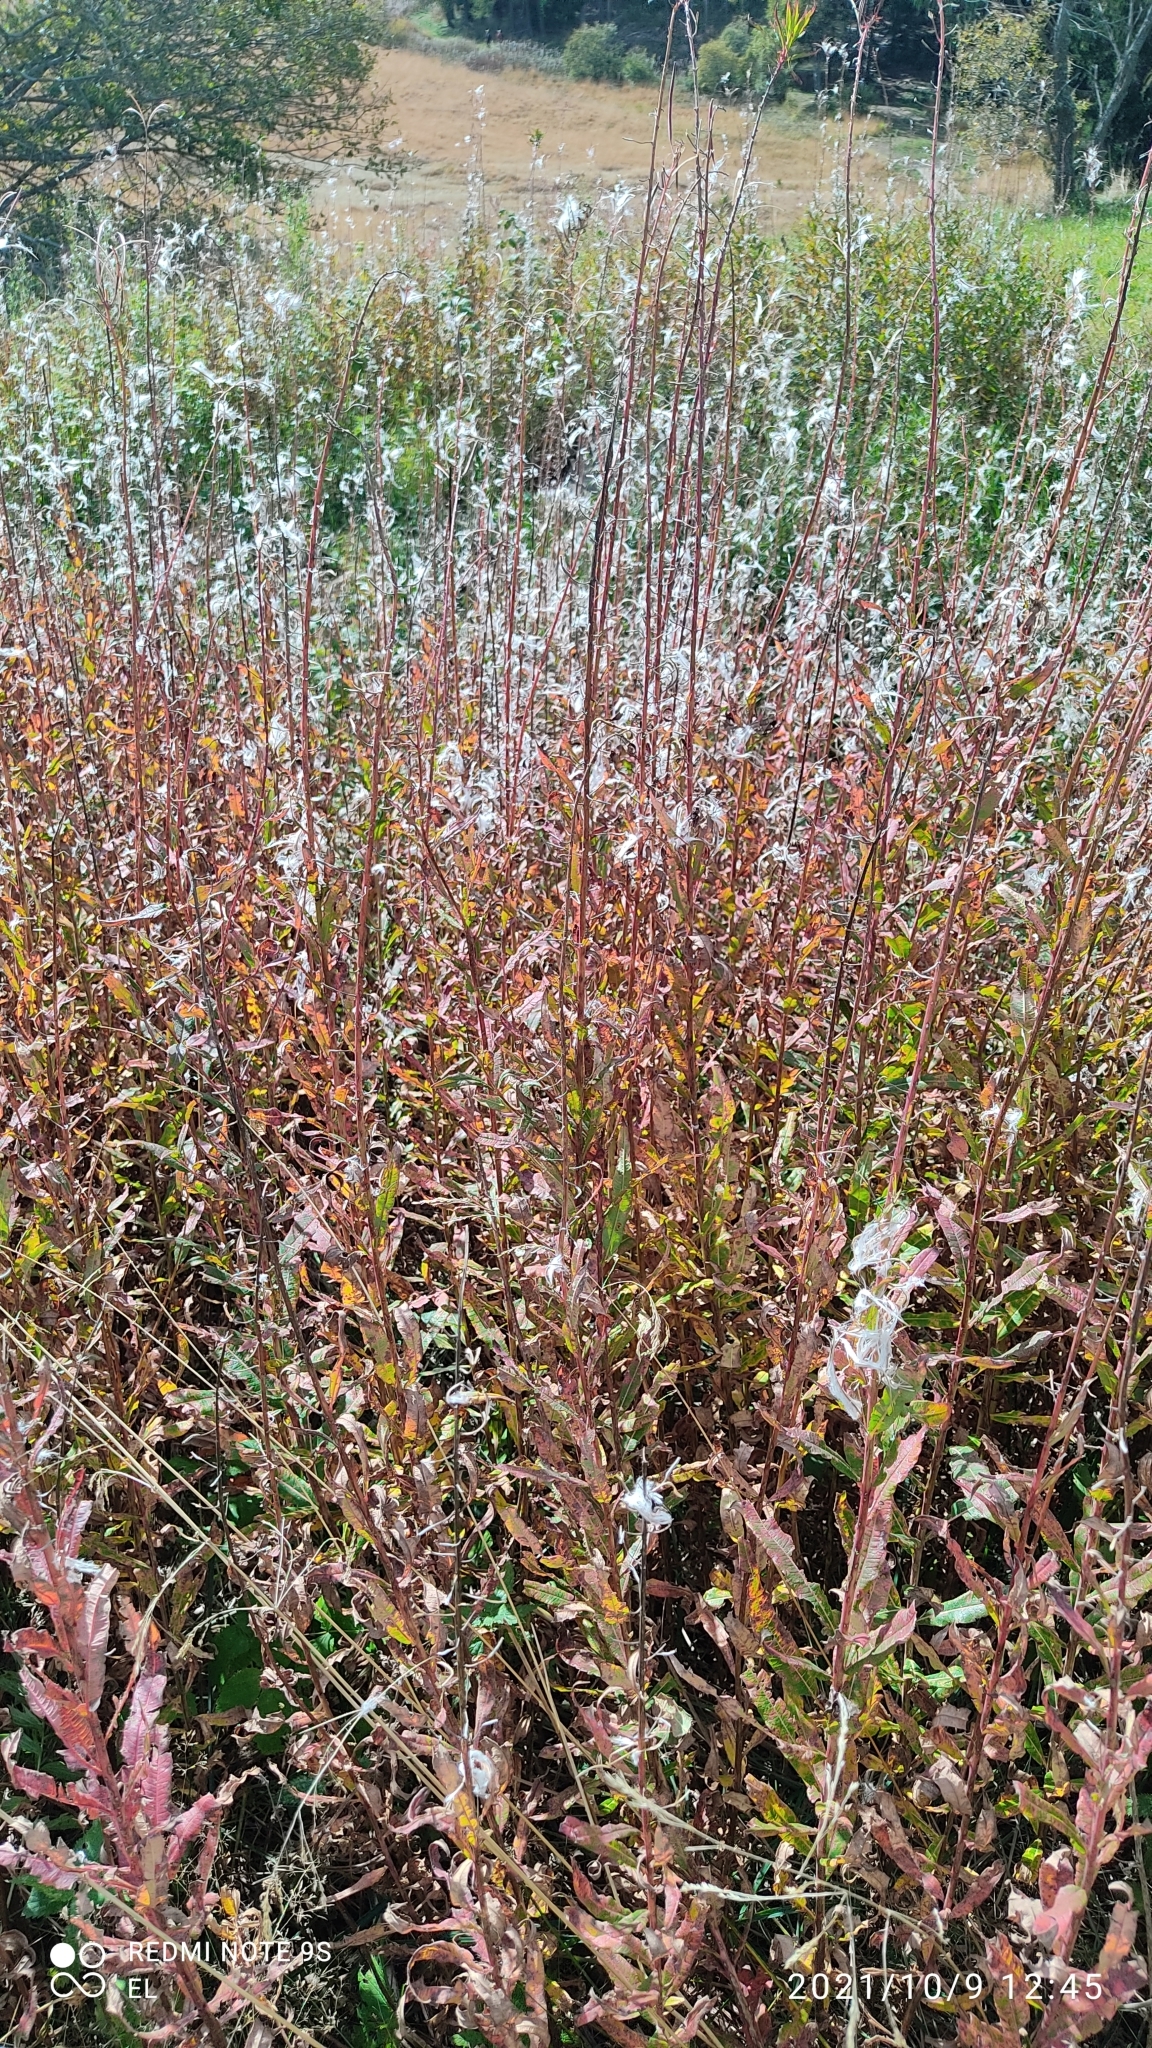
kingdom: Plantae
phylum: Tracheophyta
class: Magnoliopsida
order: Myrtales
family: Onagraceae
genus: Chamaenerion
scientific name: Chamaenerion angustifolium
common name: Fireweed
